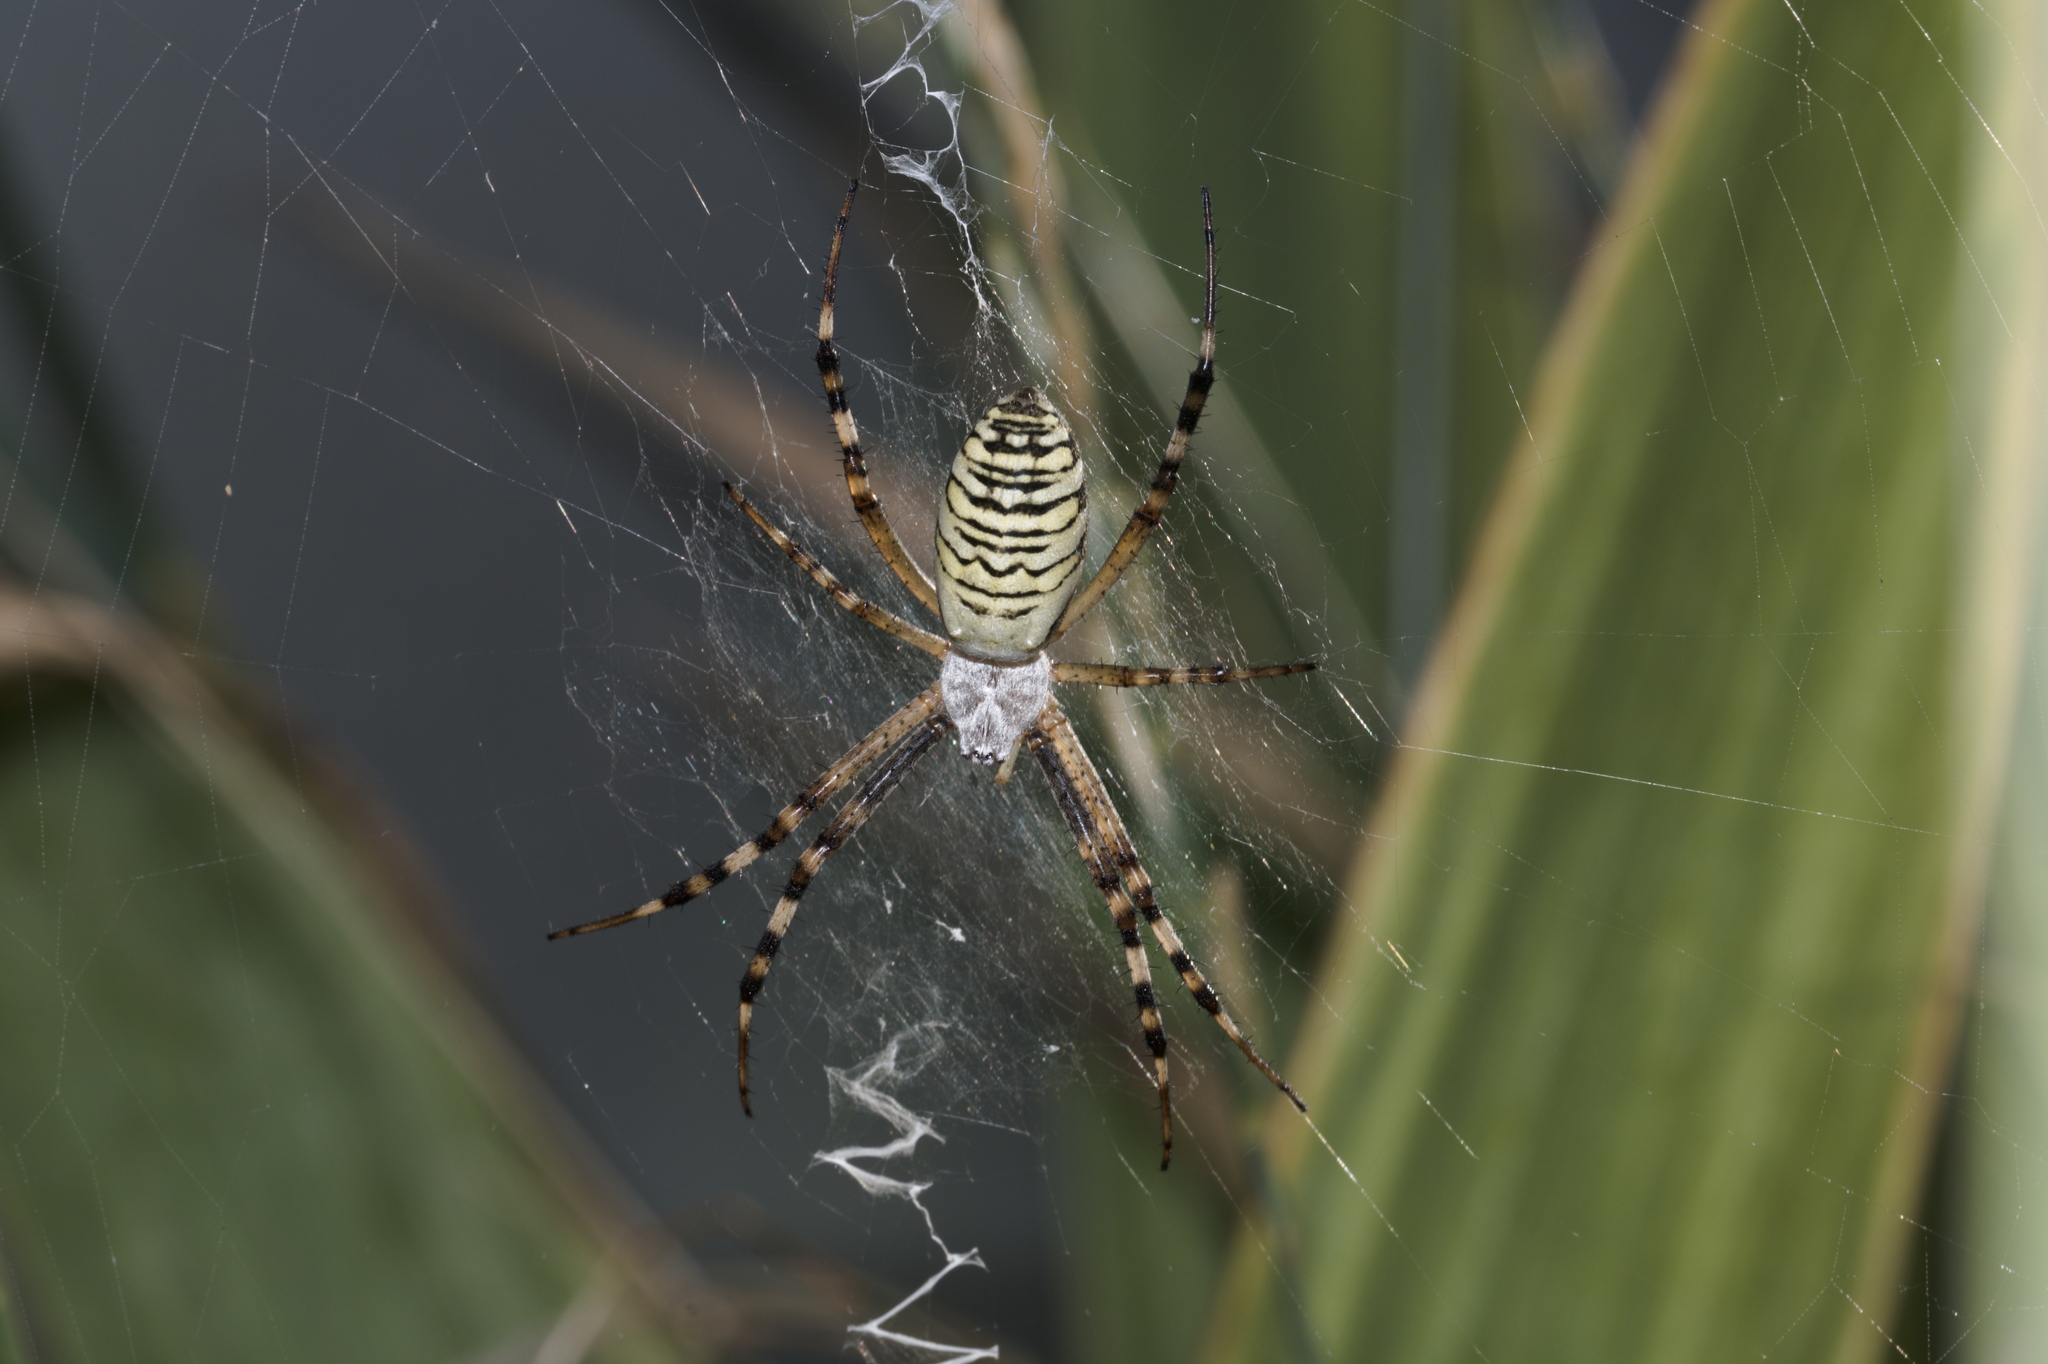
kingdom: Animalia
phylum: Arthropoda
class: Arachnida
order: Araneae
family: Araneidae
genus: Argiope
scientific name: Argiope bruennichi
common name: Wasp spider
